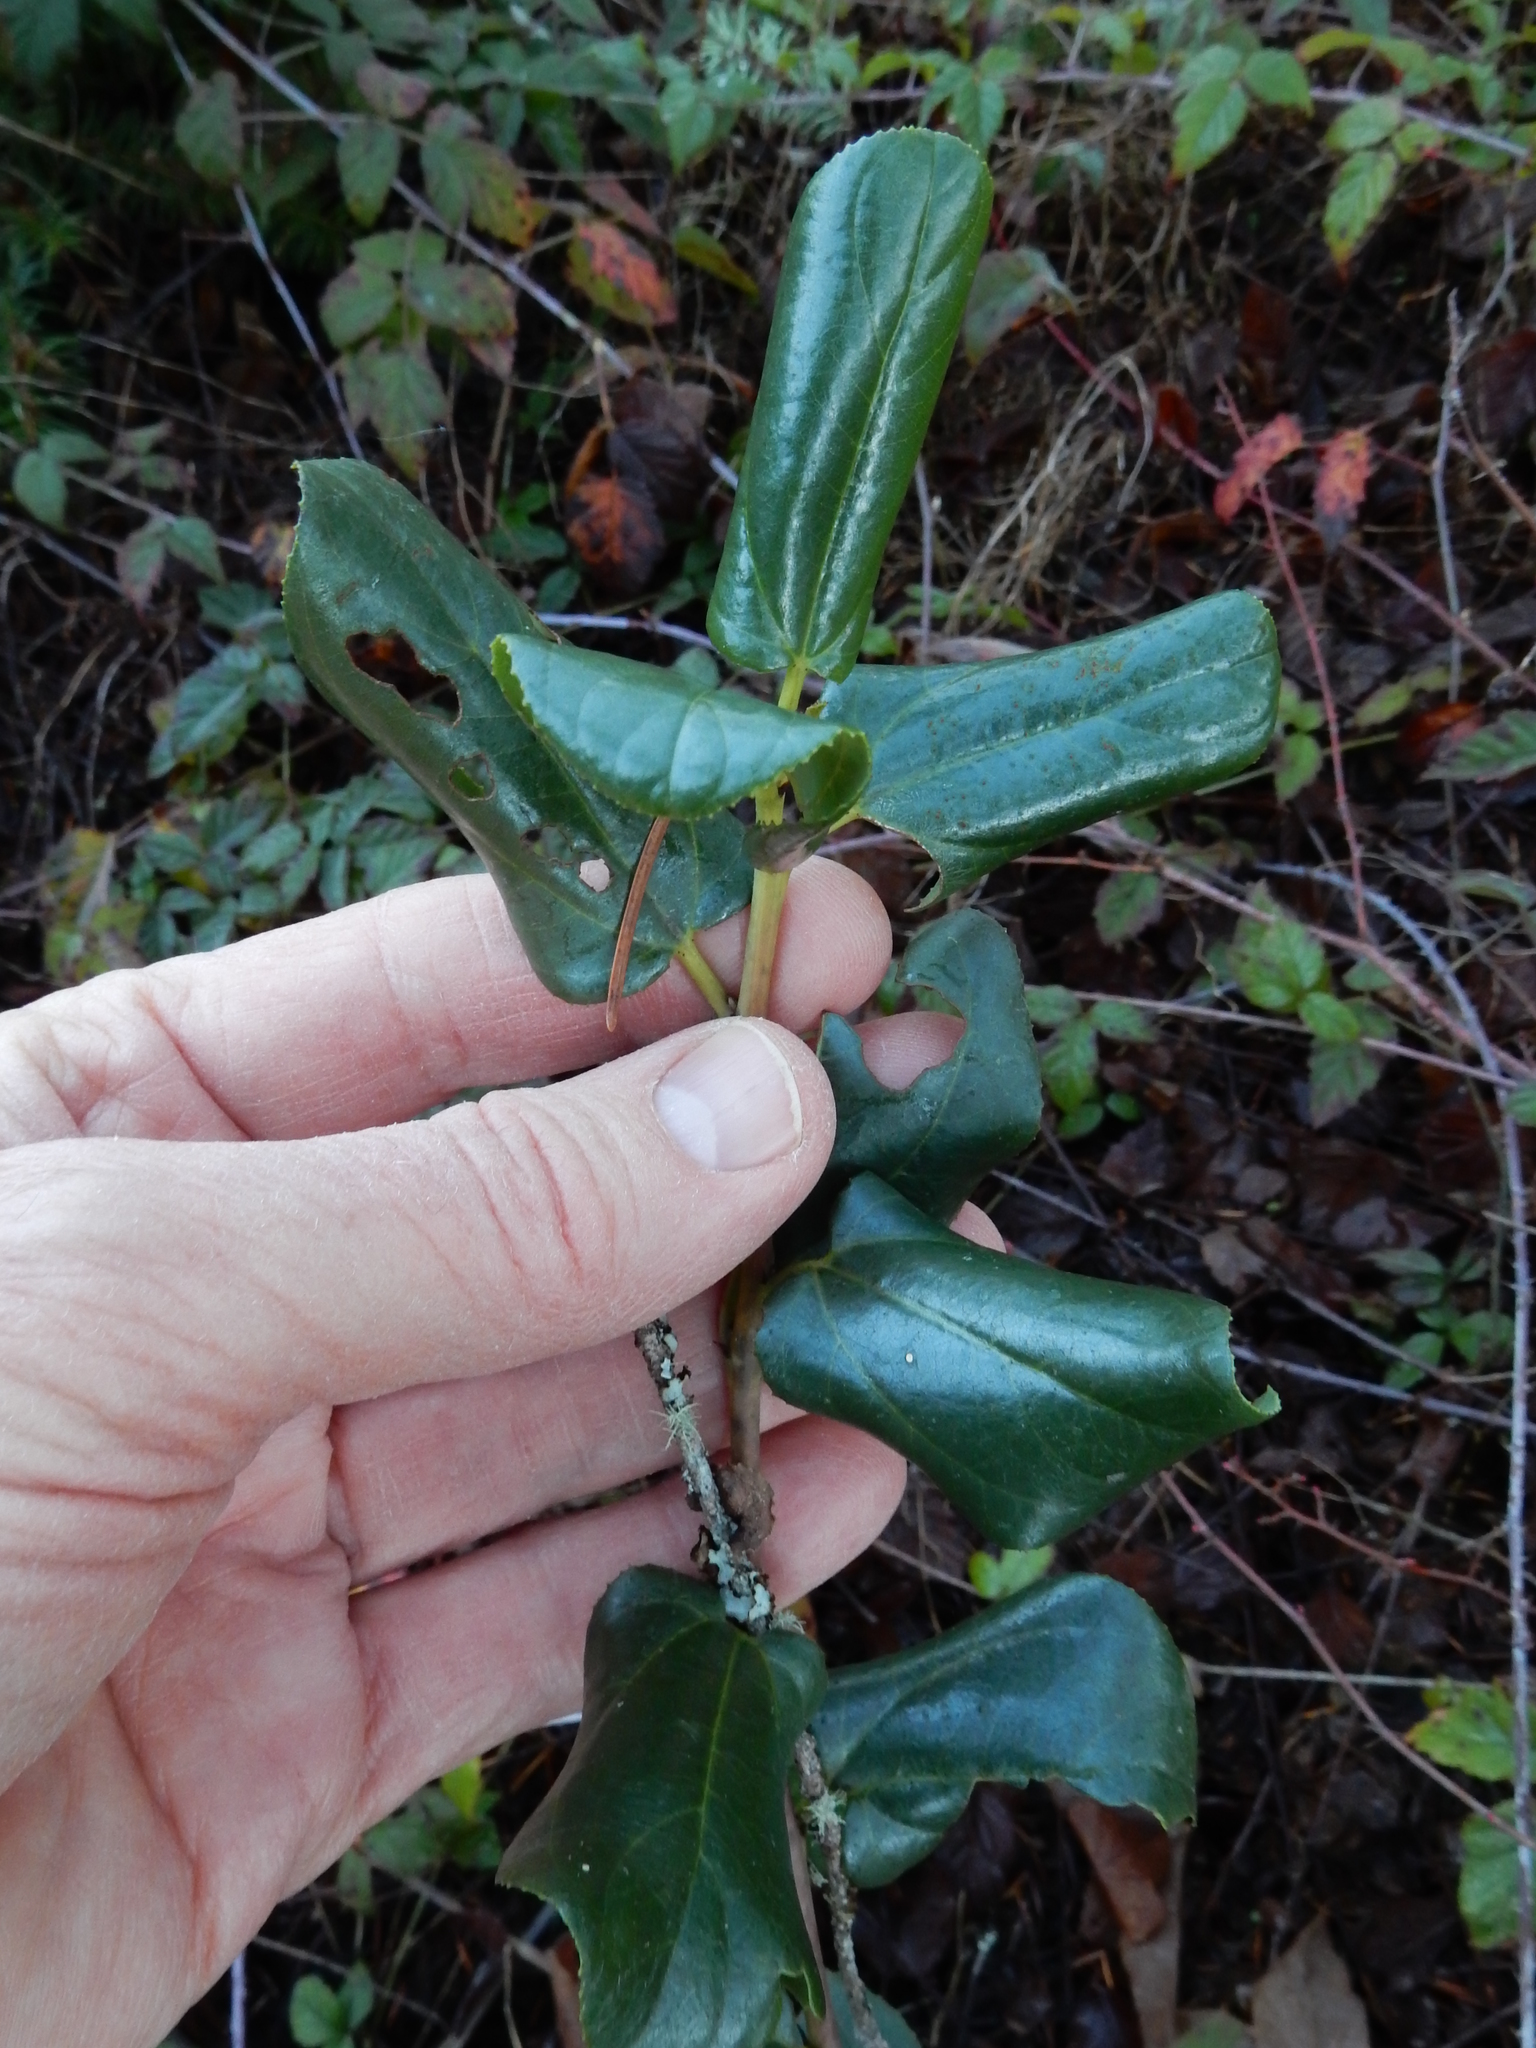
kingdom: Plantae
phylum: Tracheophyta
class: Magnoliopsida
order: Rosales
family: Rhamnaceae
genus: Ceanothus
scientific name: Ceanothus velutinus
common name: Snowbrush
